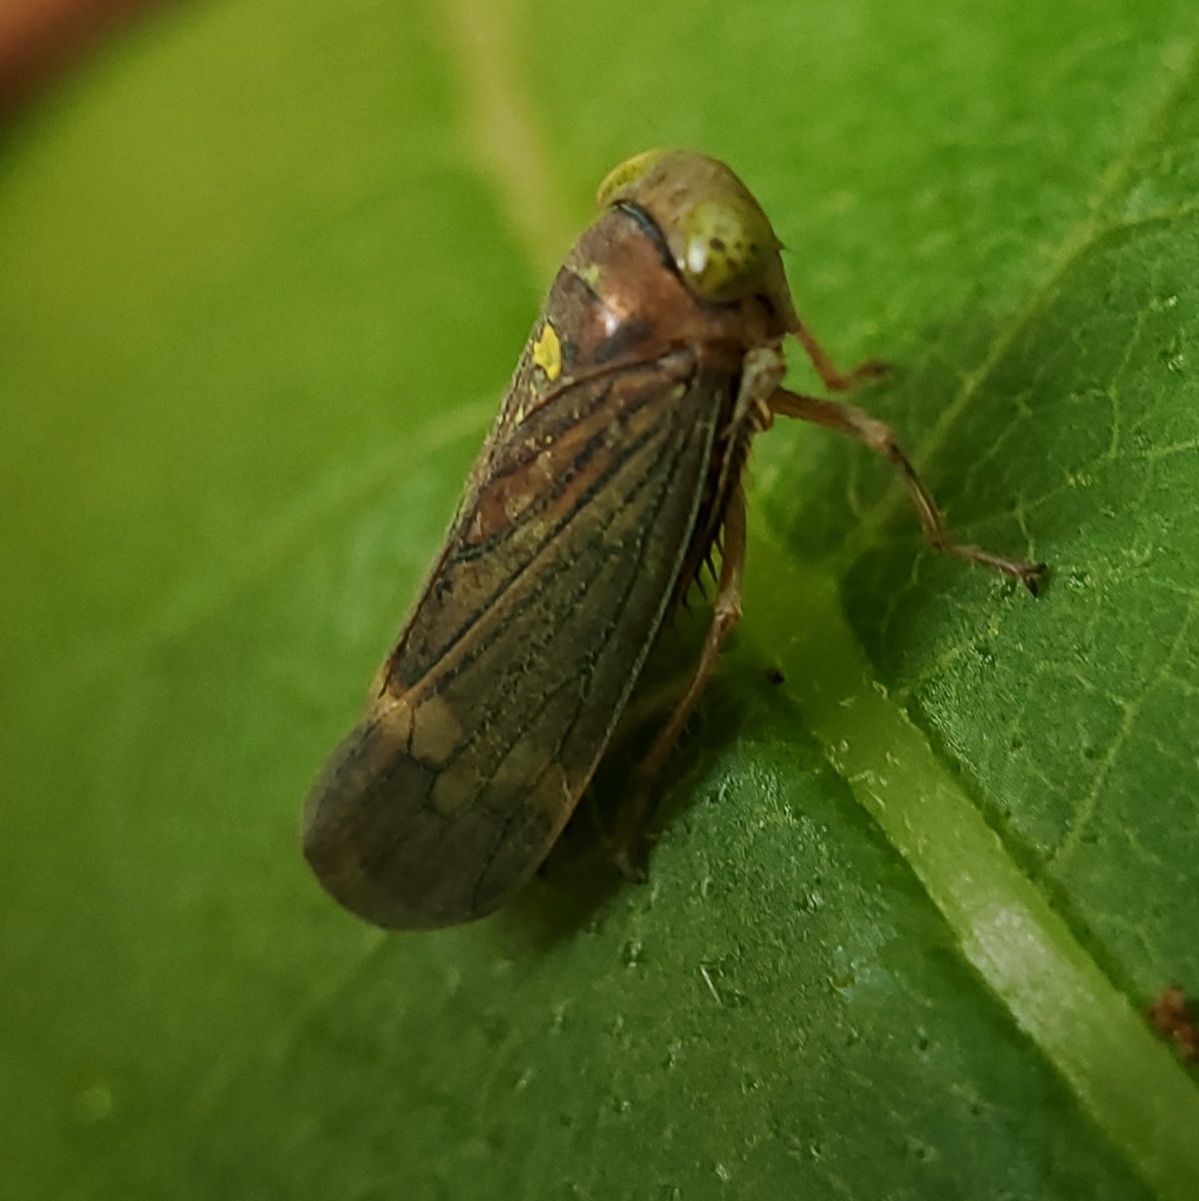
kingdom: Animalia
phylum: Arthropoda
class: Insecta
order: Hemiptera
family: Cicadellidae
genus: Jikradia
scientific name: Jikradia olitoria
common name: Coppery leafhopper
